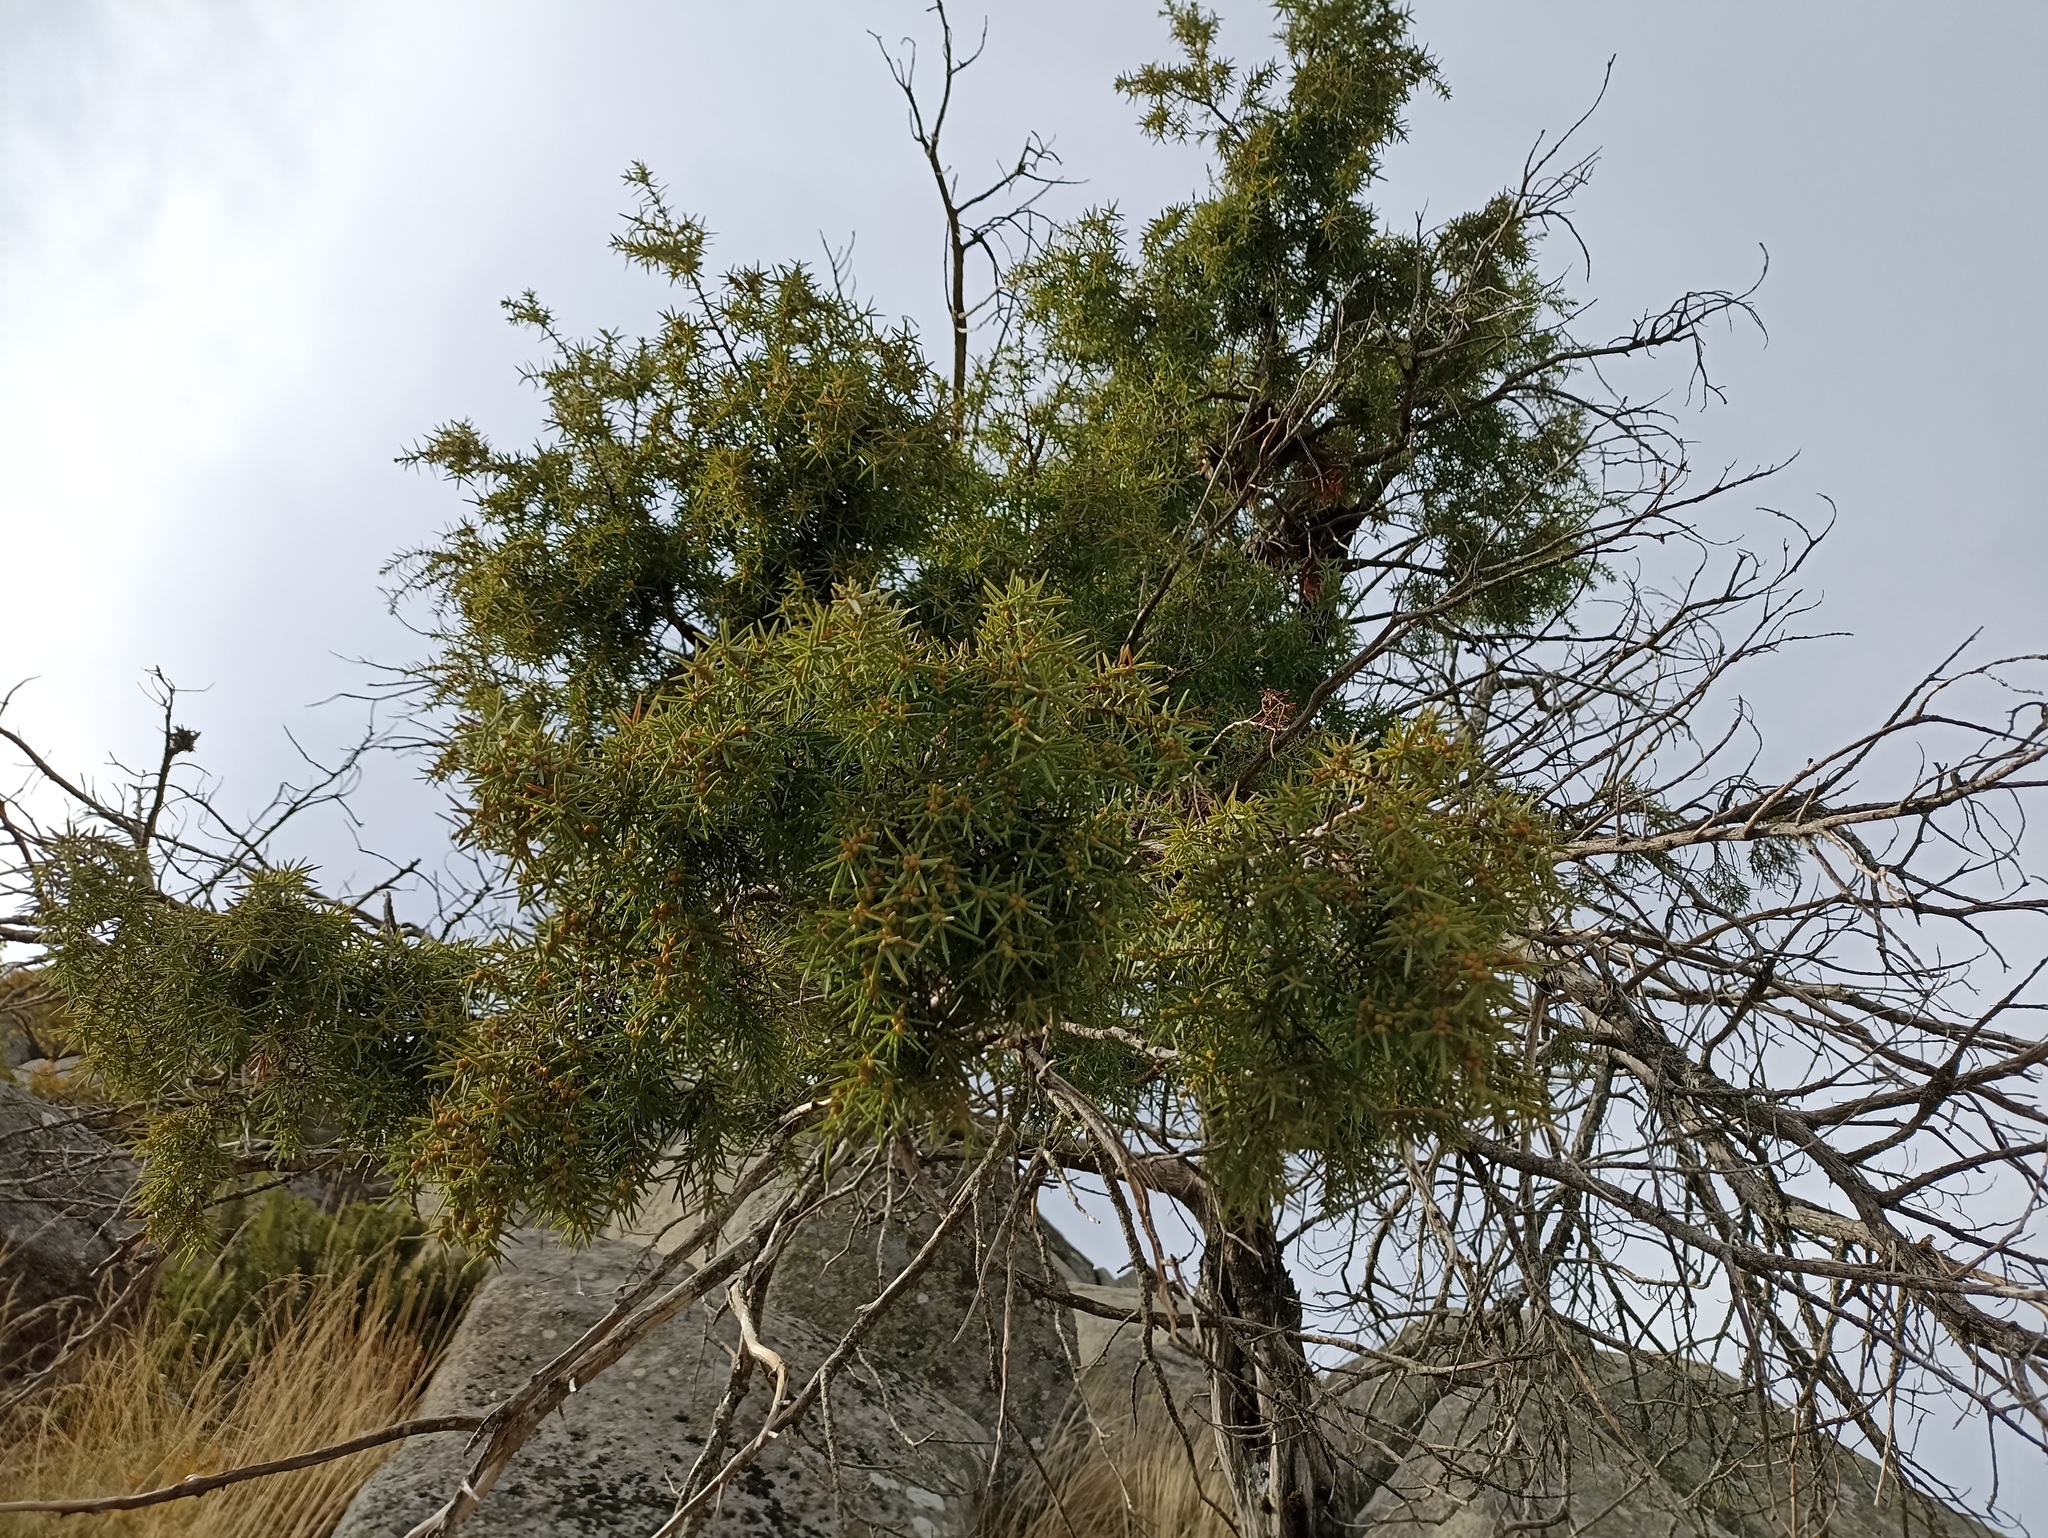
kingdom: Plantae
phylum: Tracheophyta
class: Pinopsida
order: Pinales
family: Cupressaceae
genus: Juniperus
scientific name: Juniperus oxycedrus
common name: Prickly juniper
